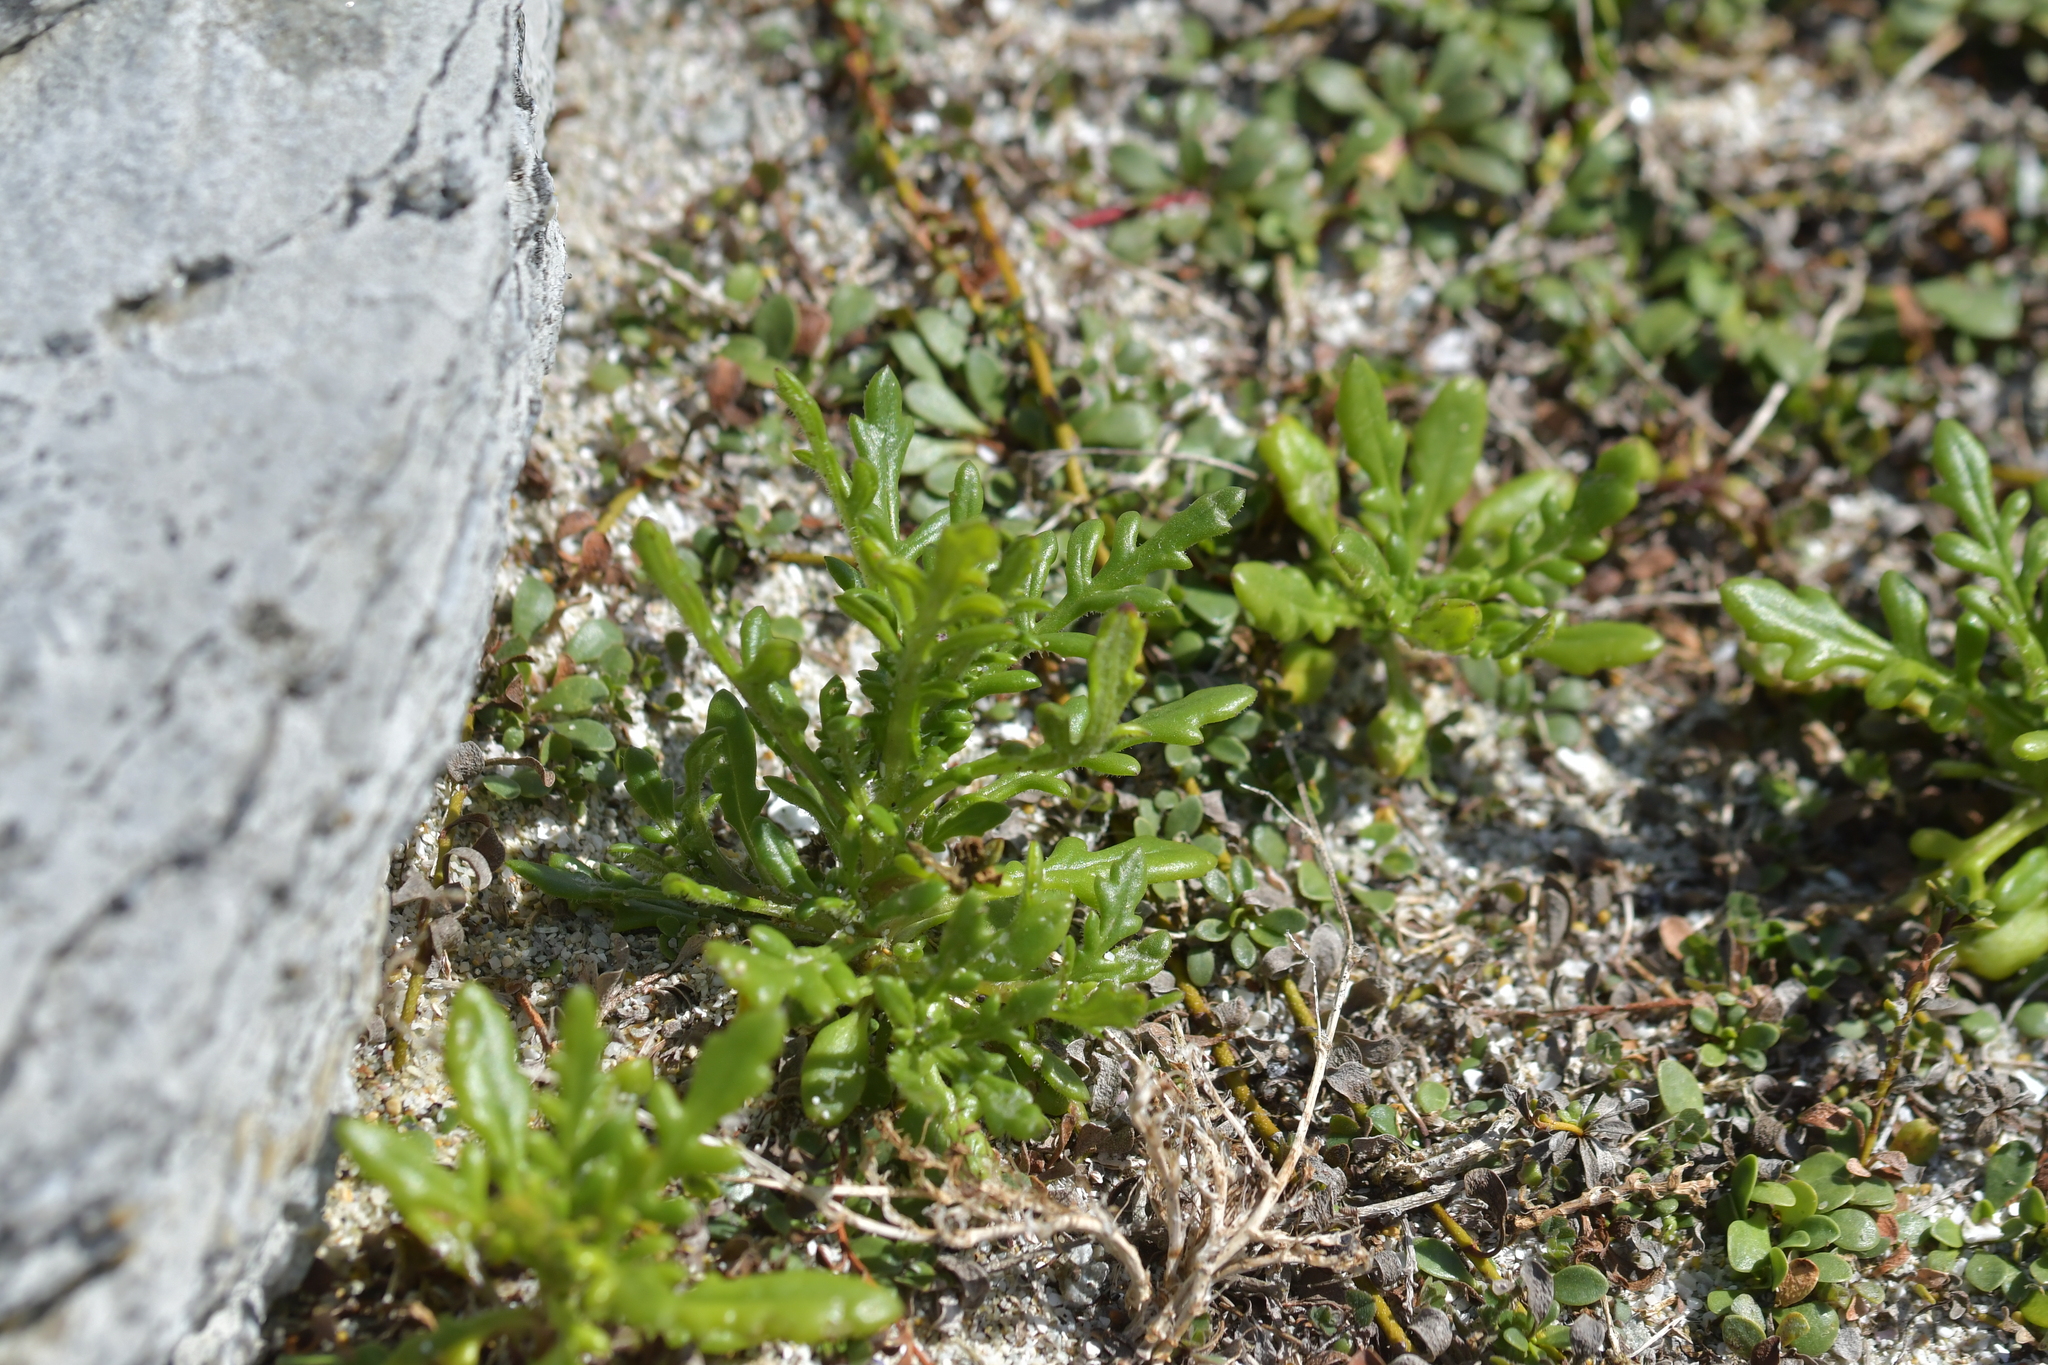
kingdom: Plantae
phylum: Tracheophyta
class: Magnoliopsida
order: Asterales
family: Asteraceae
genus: Senecio
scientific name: Senecio lautus
